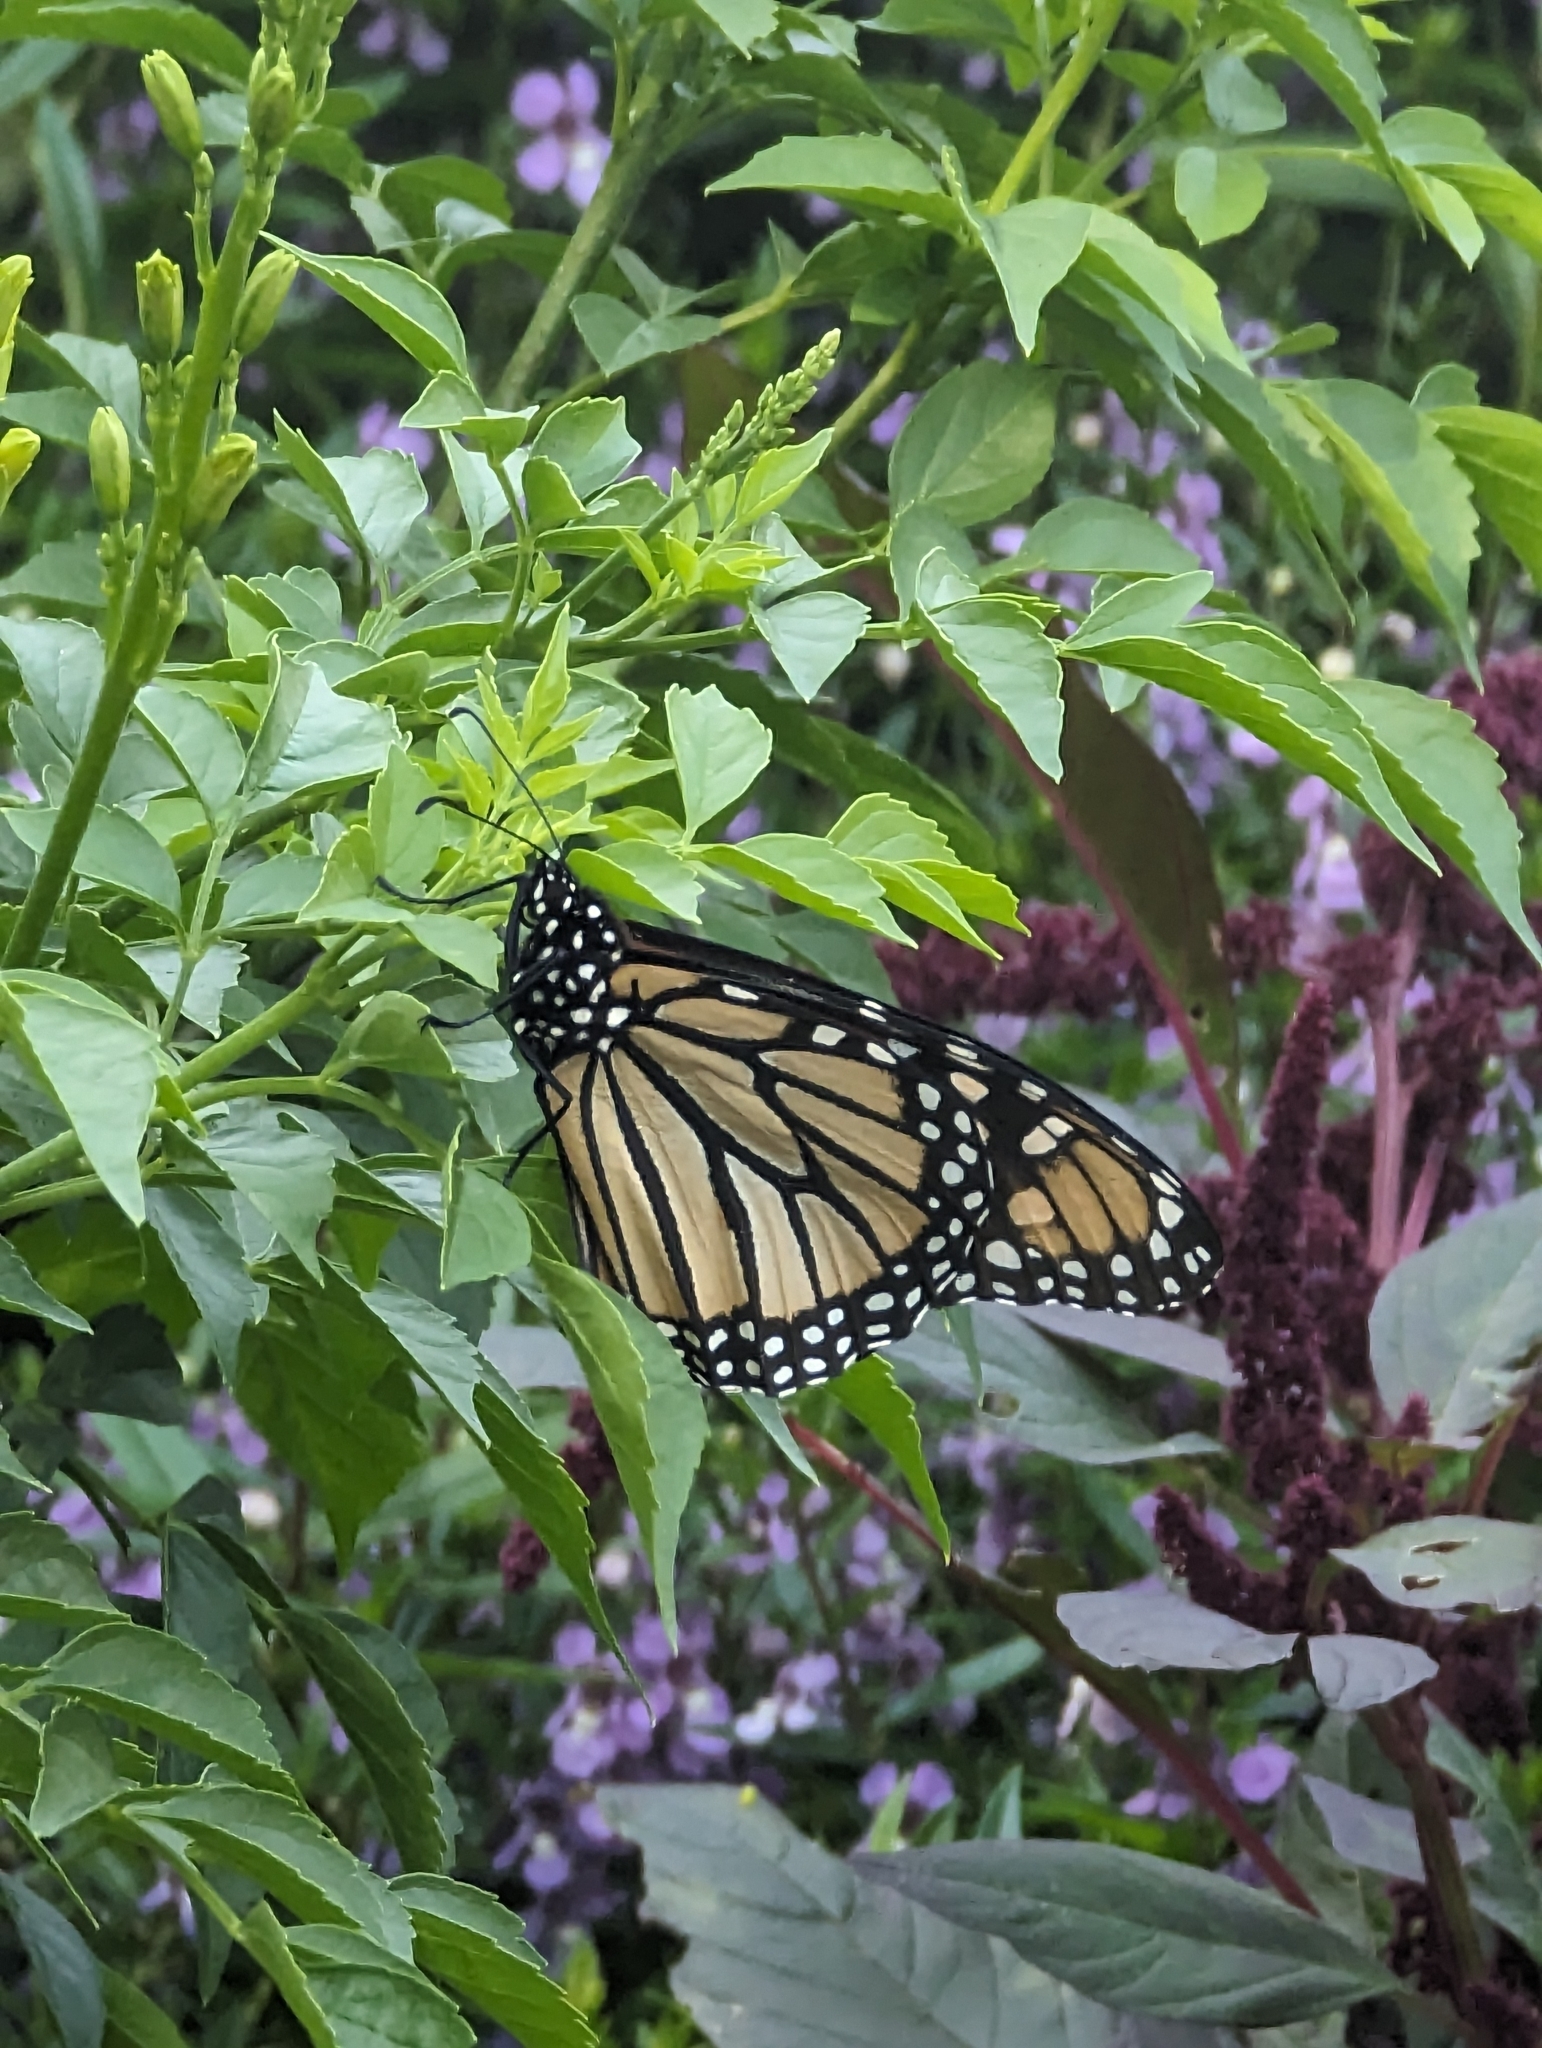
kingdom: Animalia
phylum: Arthropoda
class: Insecta
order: Lepidoptera
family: Nymphalidae
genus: Danaus
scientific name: Danaus plexippus
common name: Monarch
